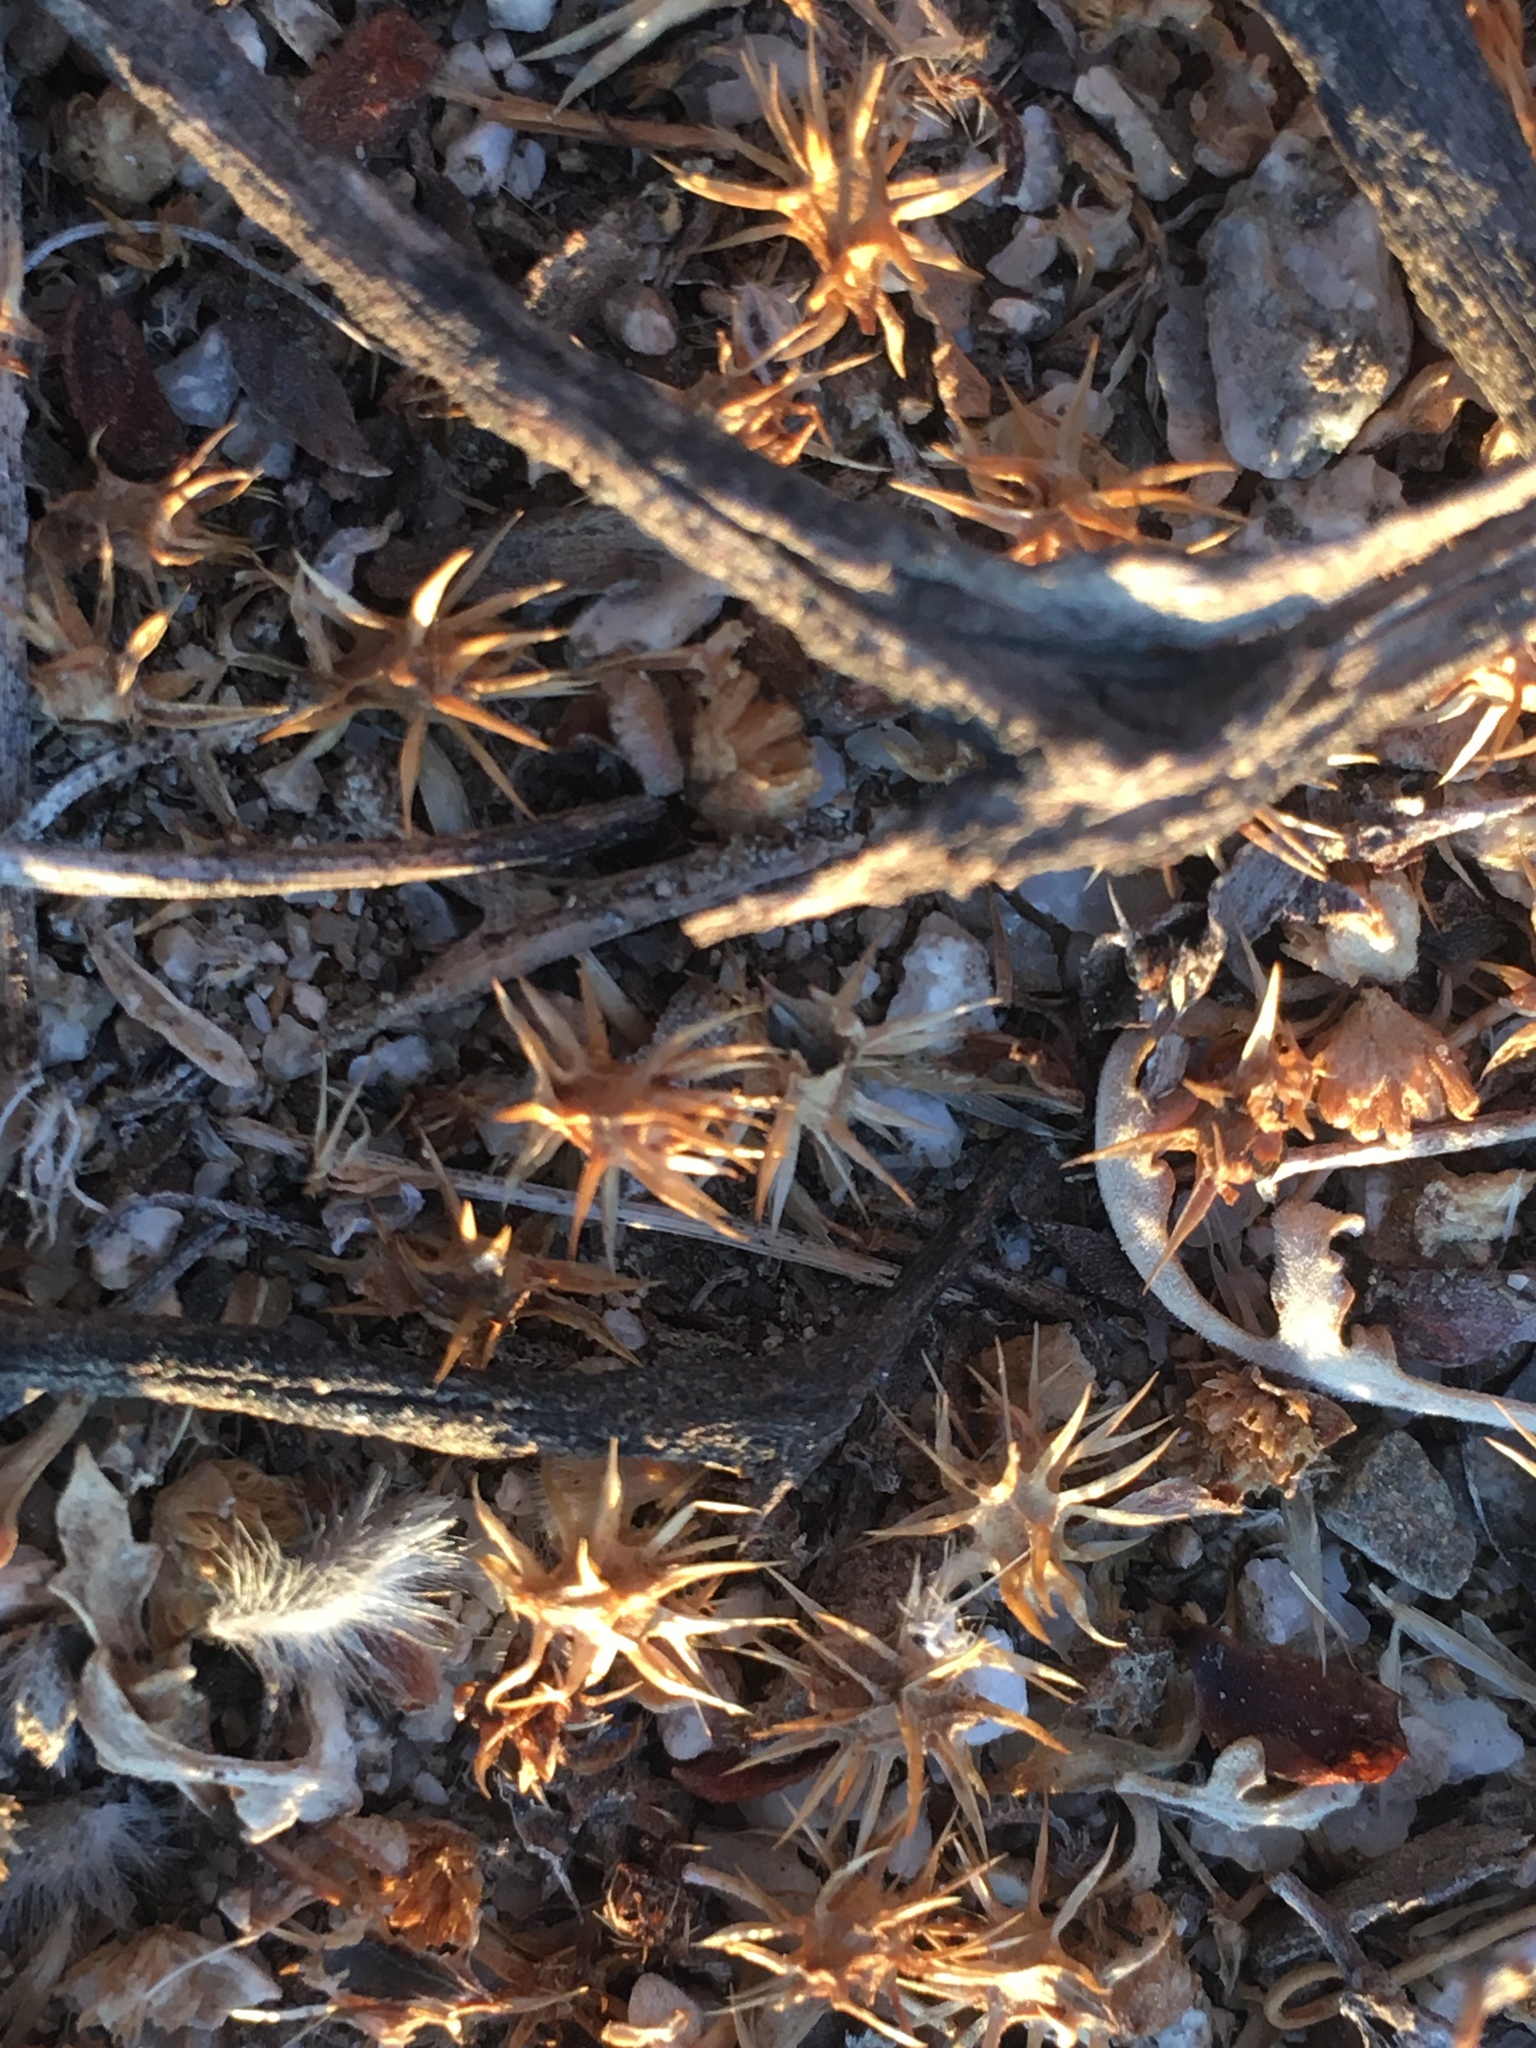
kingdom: Plantae
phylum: Tracheophyta
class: Magnoliopsida
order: Asterales
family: Asteraceae
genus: Ambrosia
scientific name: Ambrosia dumosa
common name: Bur-sage
